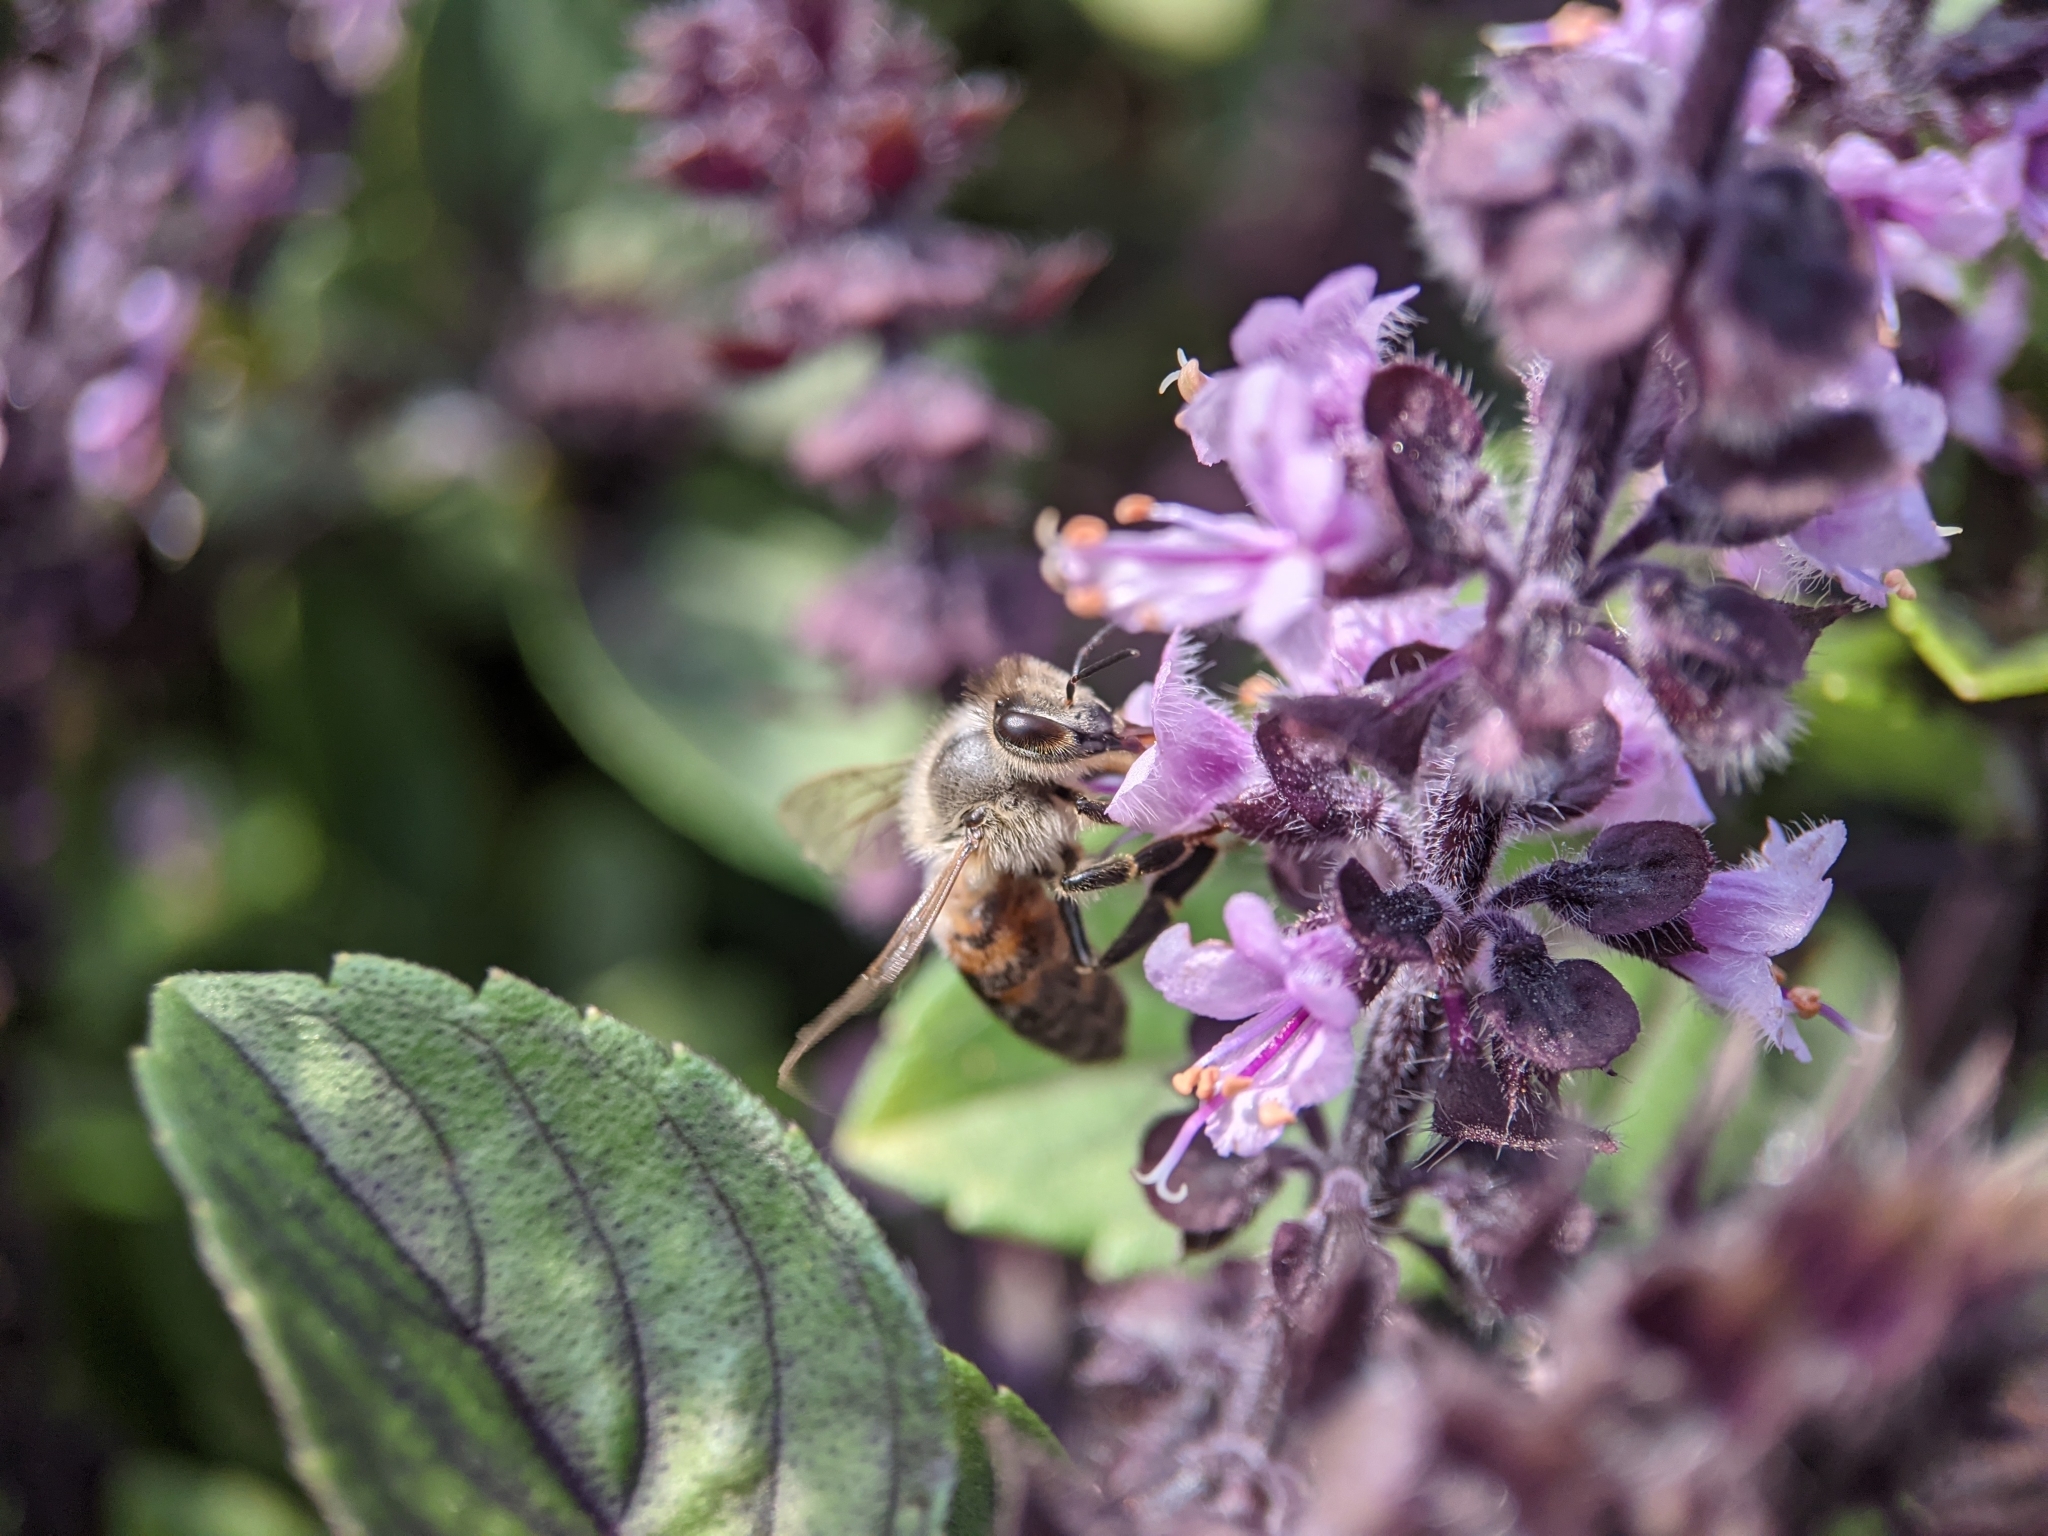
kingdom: Animalia
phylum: Arthropoda
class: Insecta
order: Hymenoptera
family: Apidae
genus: Apis
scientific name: Apis mellifera
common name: Honey bee
